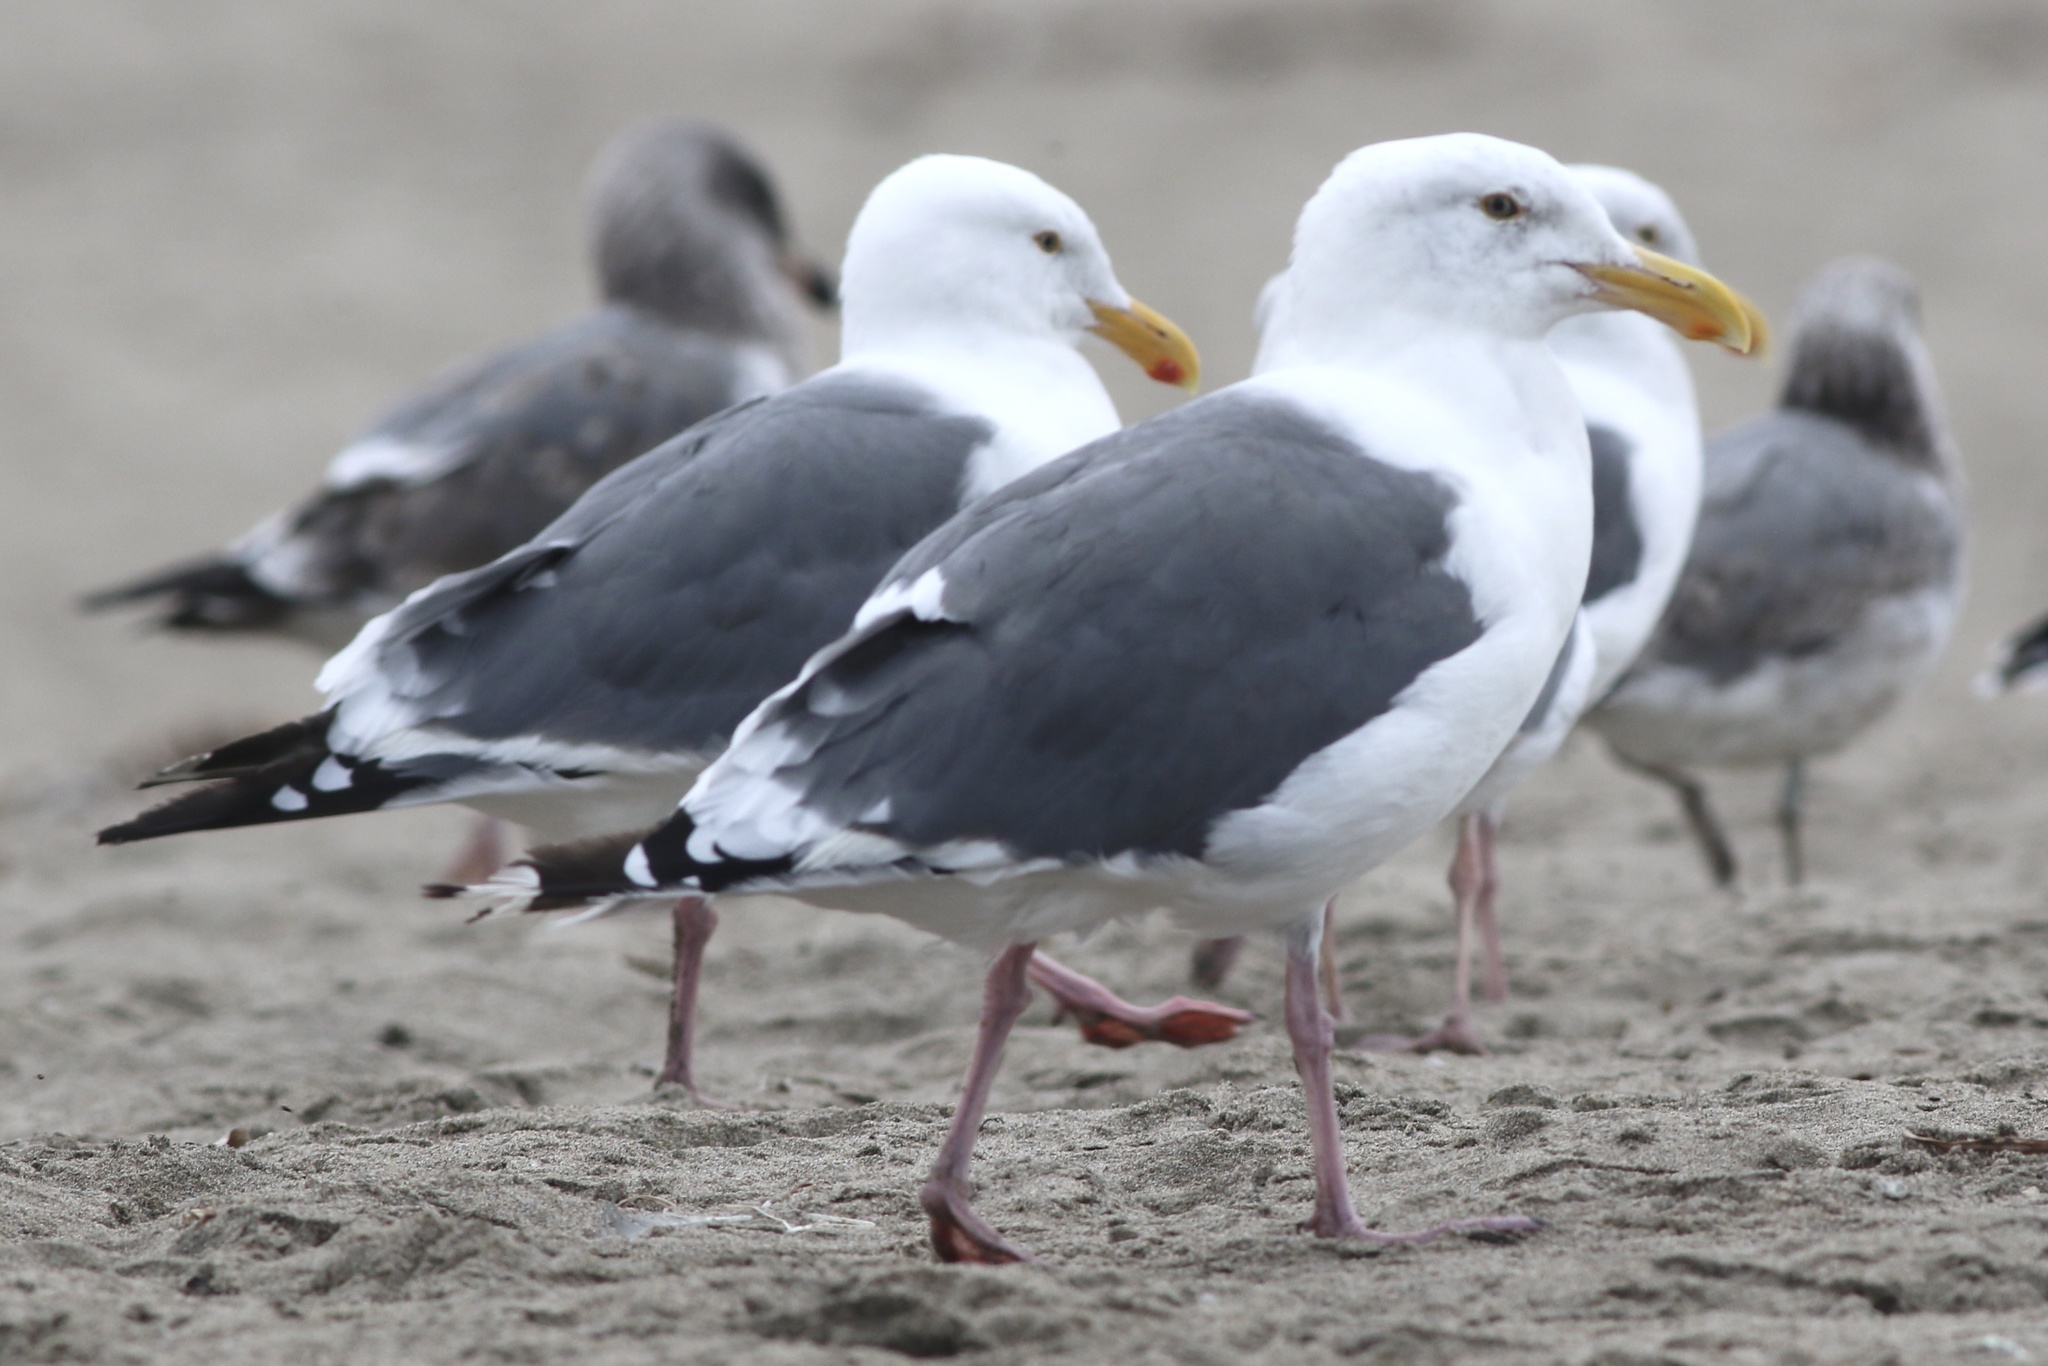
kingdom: Animalia
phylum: Chordata
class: Aves
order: Charadriiformes
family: Laridae
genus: Larus
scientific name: Larus occidentalis
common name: Western gull
